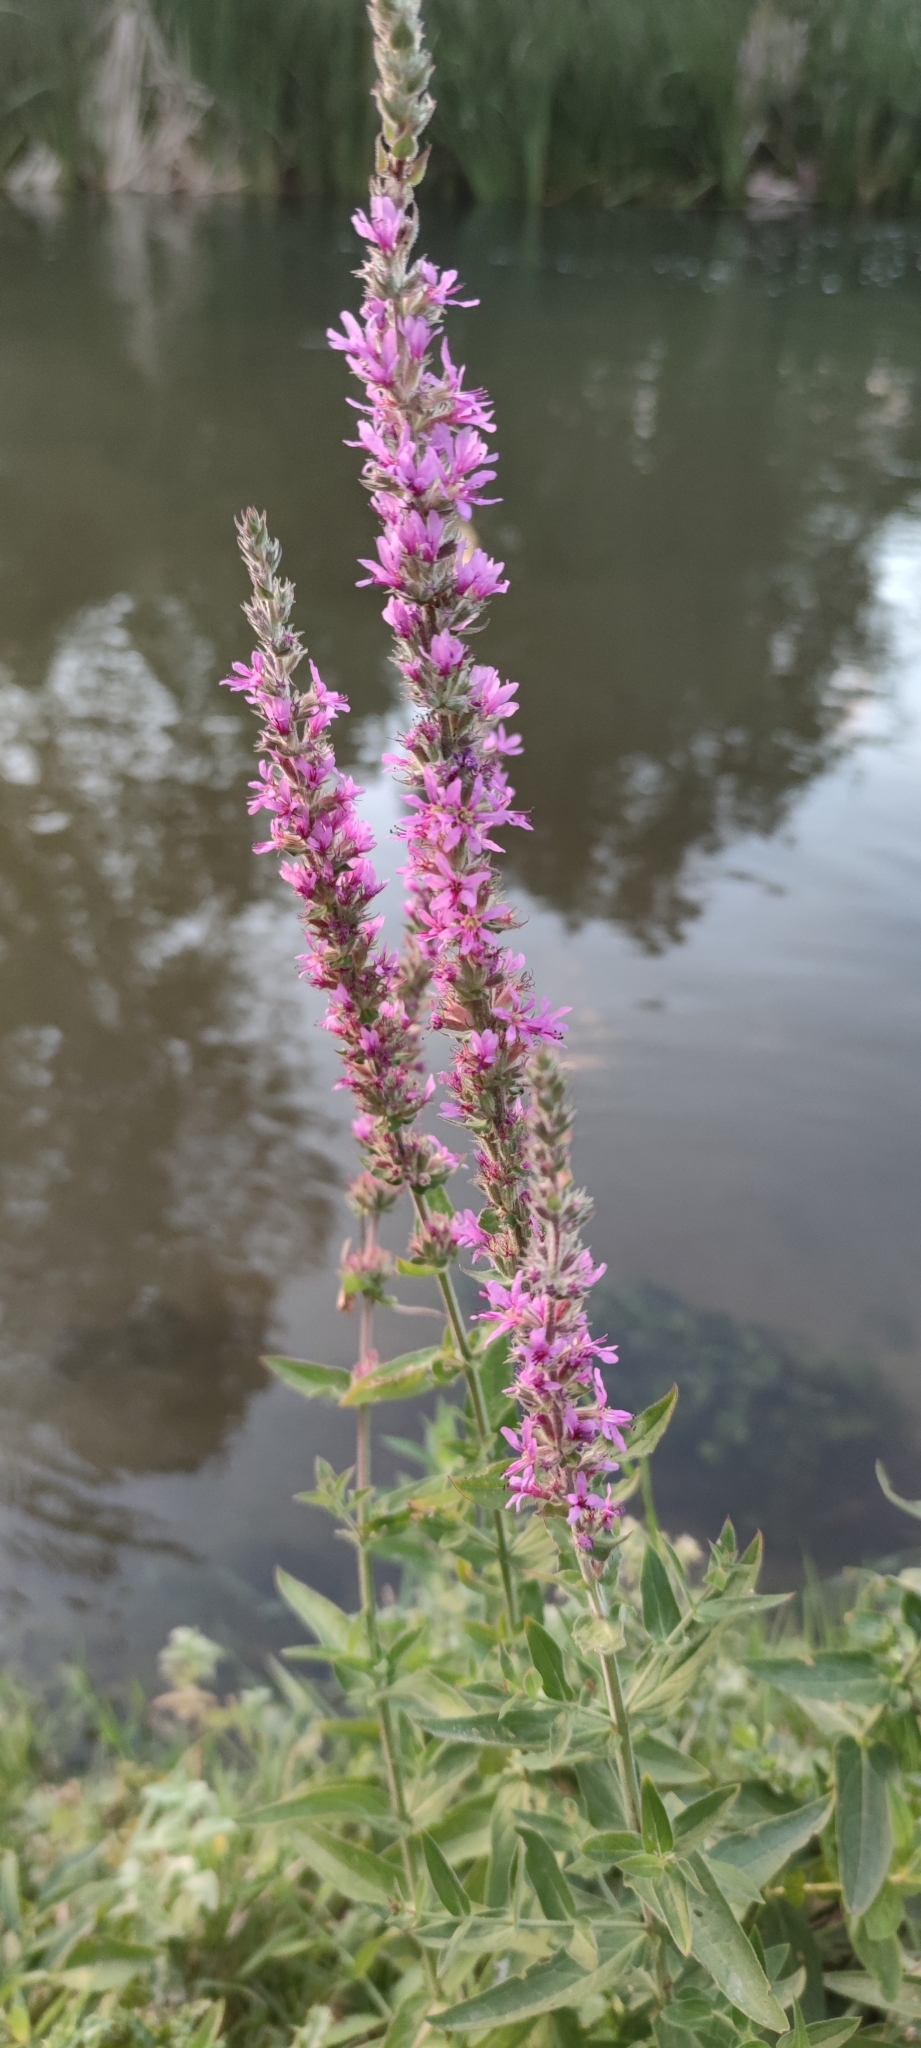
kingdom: Plantae
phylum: Tracheophyta
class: Magnoliopsida
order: Myrtales
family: Lythraceae
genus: Lythrum
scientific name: Lythrum salicaria
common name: Purple loosestrife
